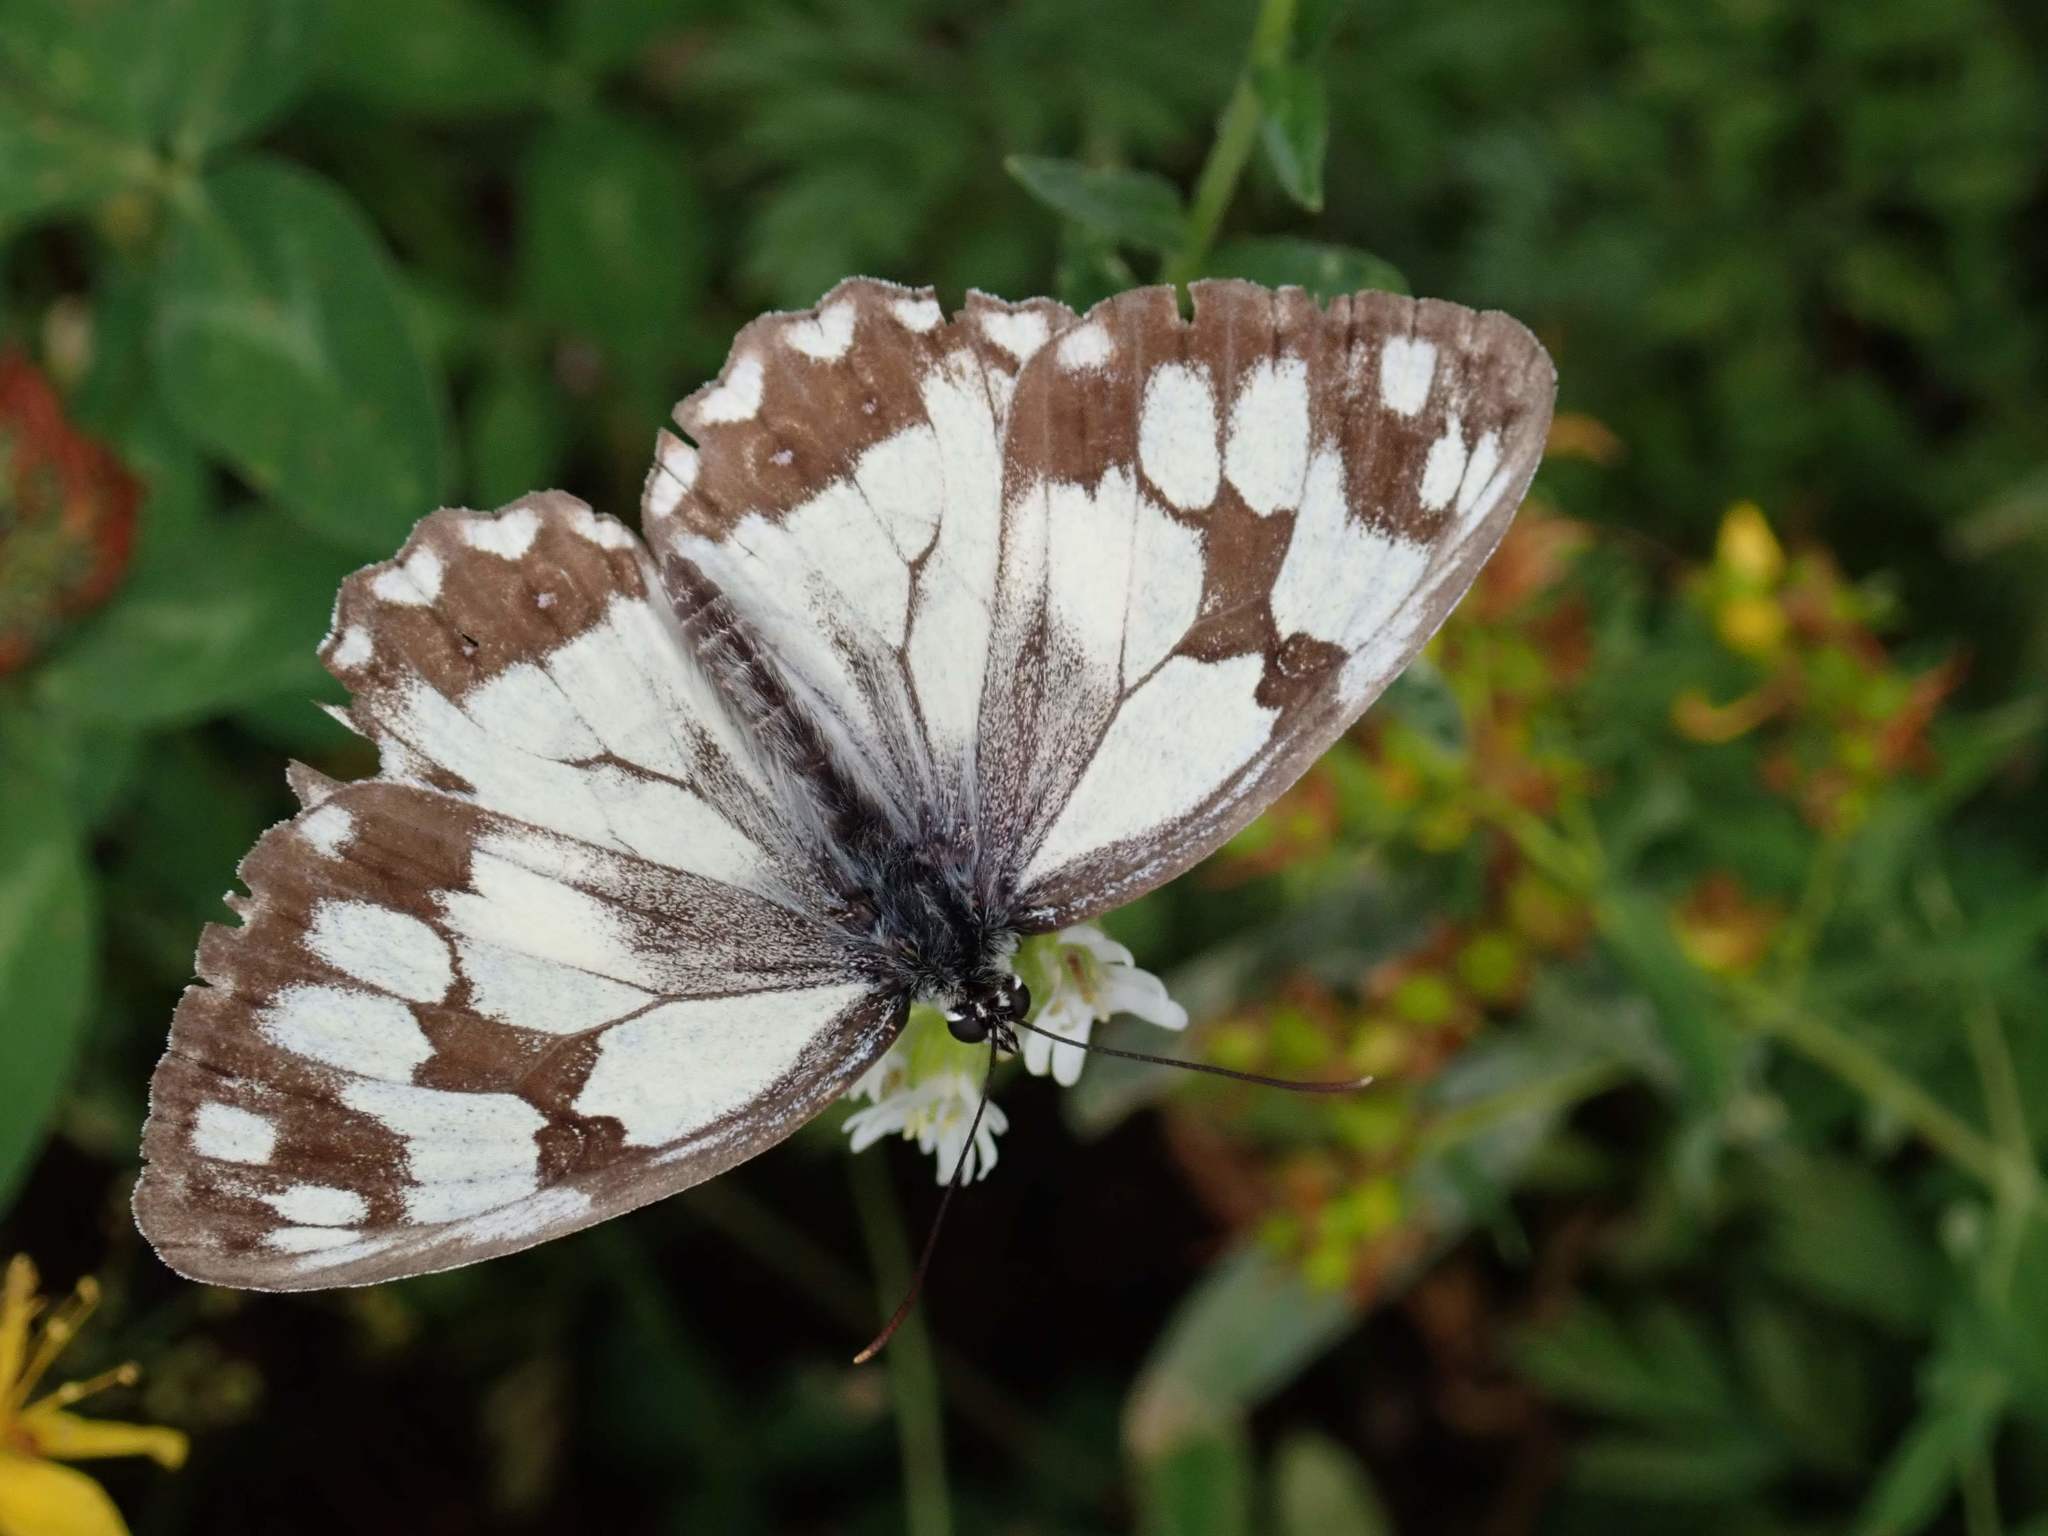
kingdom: Animalia
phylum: Arthropoda
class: Insecta
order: Lepidoptera
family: Nymphalidae
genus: Melanargia
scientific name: Melanargia lachesis
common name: Iberian marbled white
